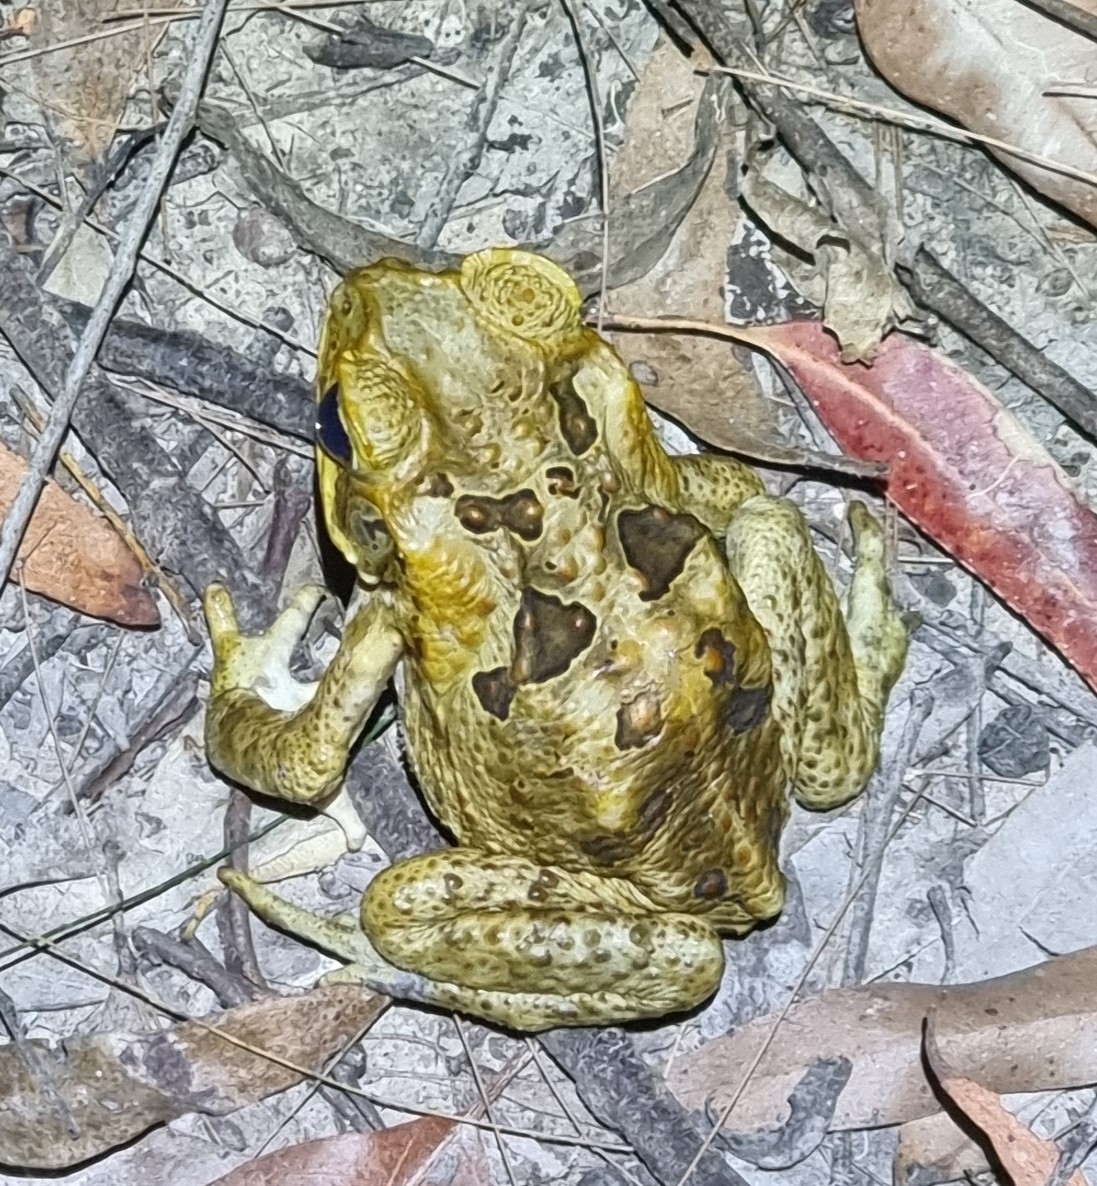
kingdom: Animalia
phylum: Chordata
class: Amphibia
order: Anura
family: Bufonidae
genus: Rhinella
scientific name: Rhinella marina
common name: Cane toad
